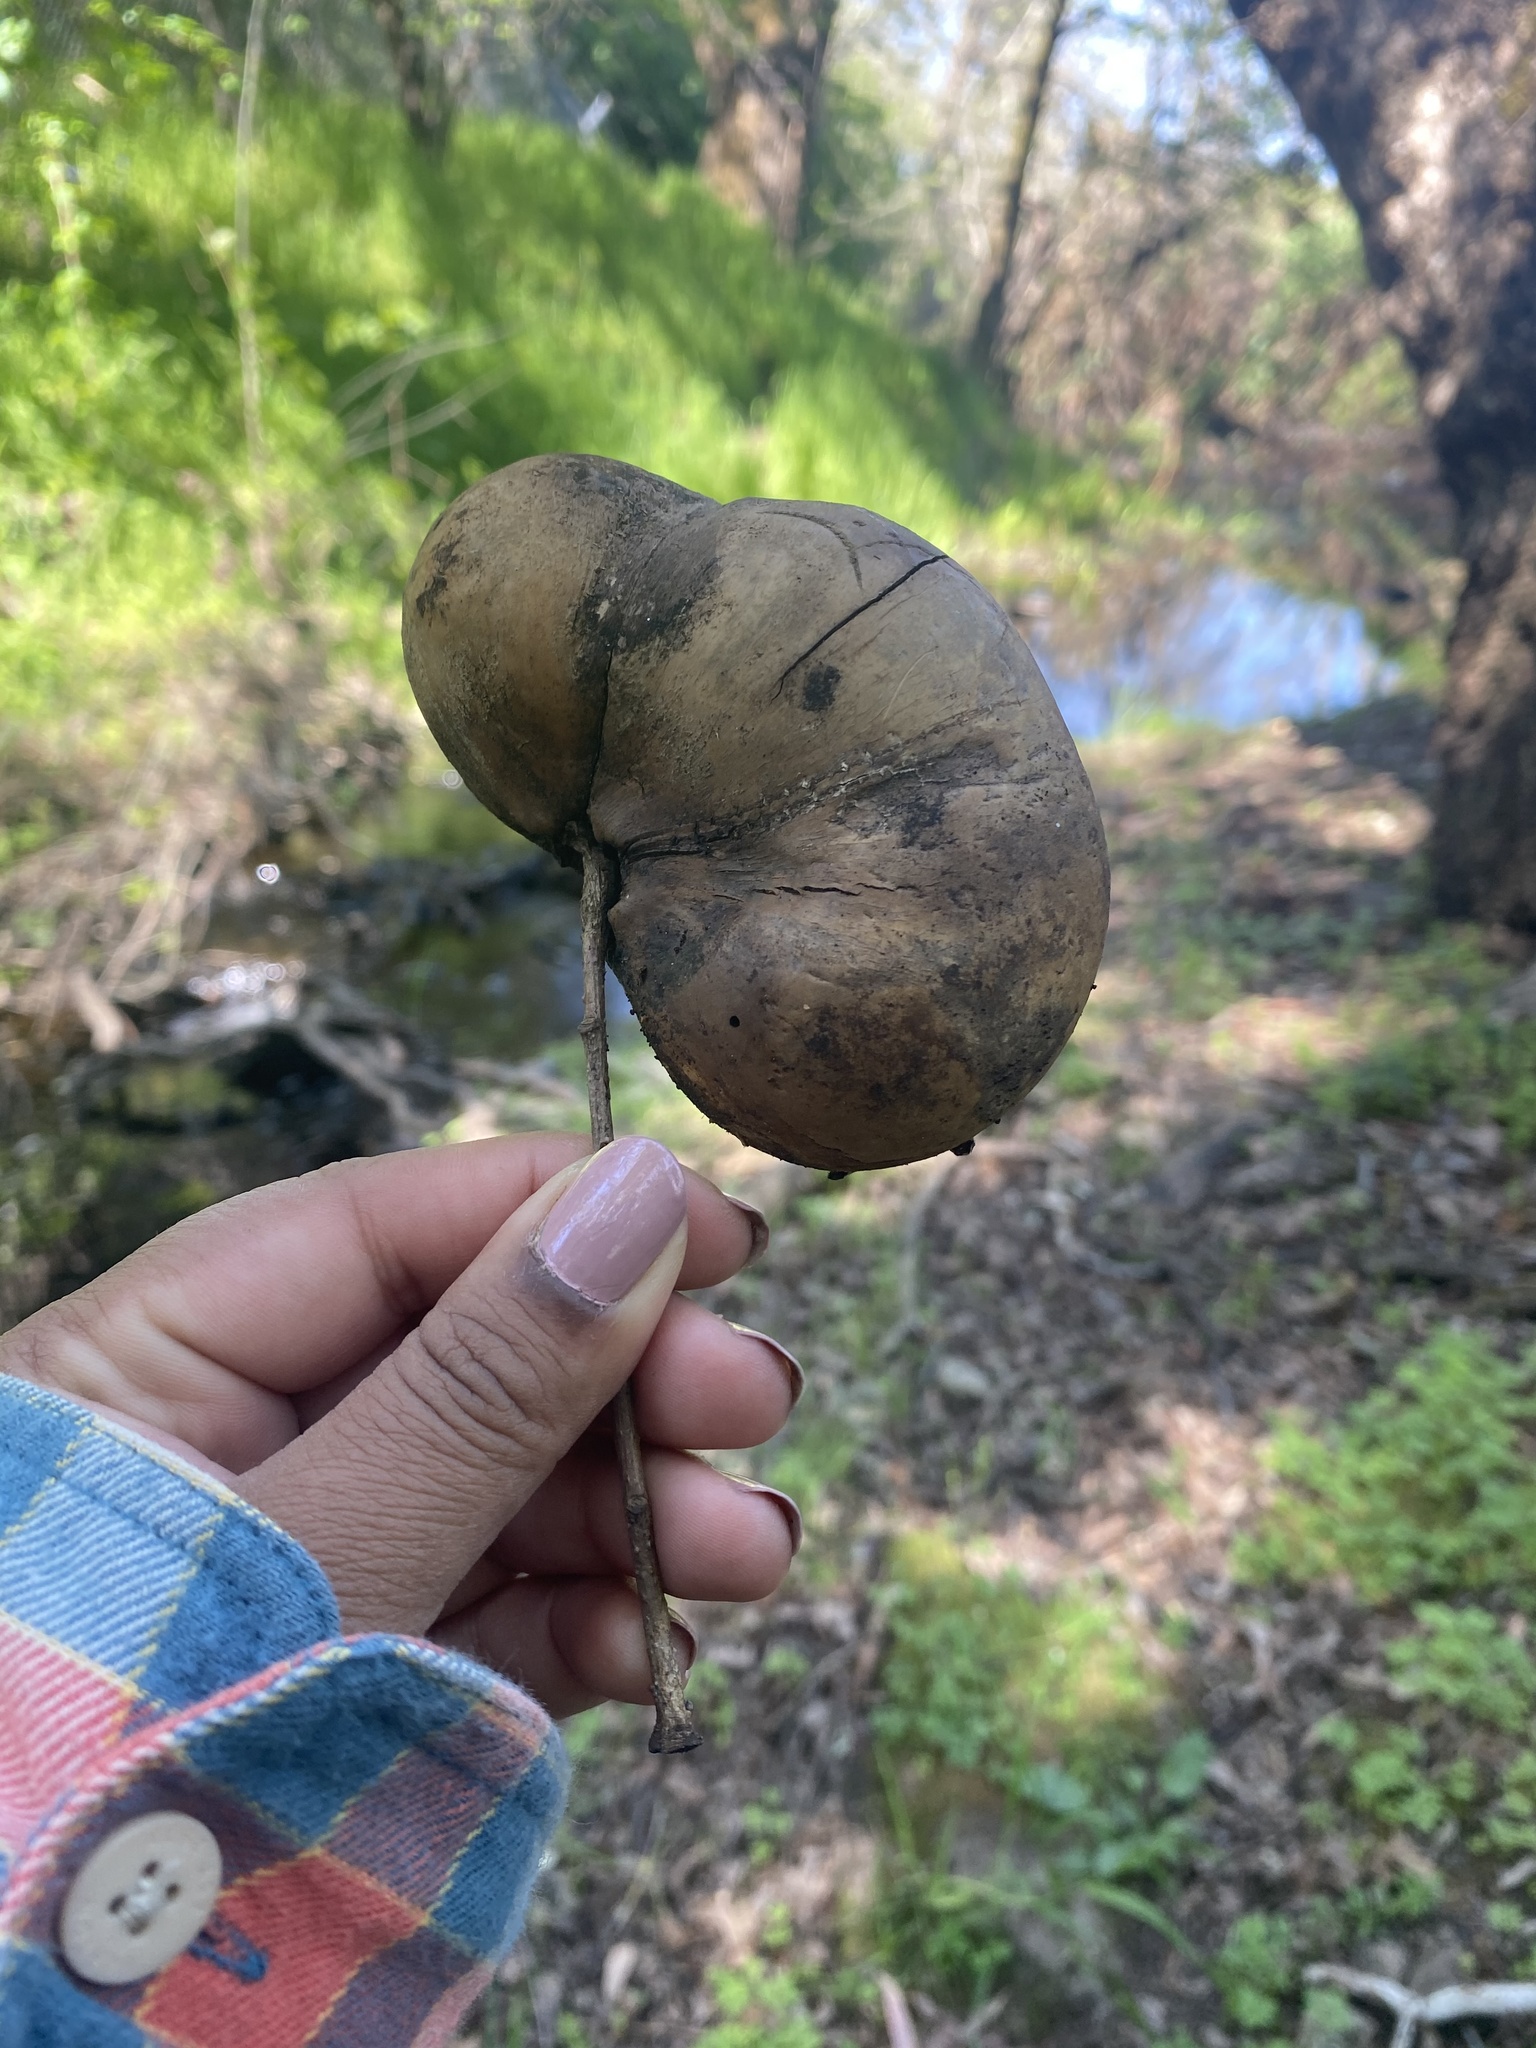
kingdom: Animalia
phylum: Arthropoda
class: Insecta
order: Hymenoptera
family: Cynipidae
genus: Andricus
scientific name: Andricus quercuscalifornicus
